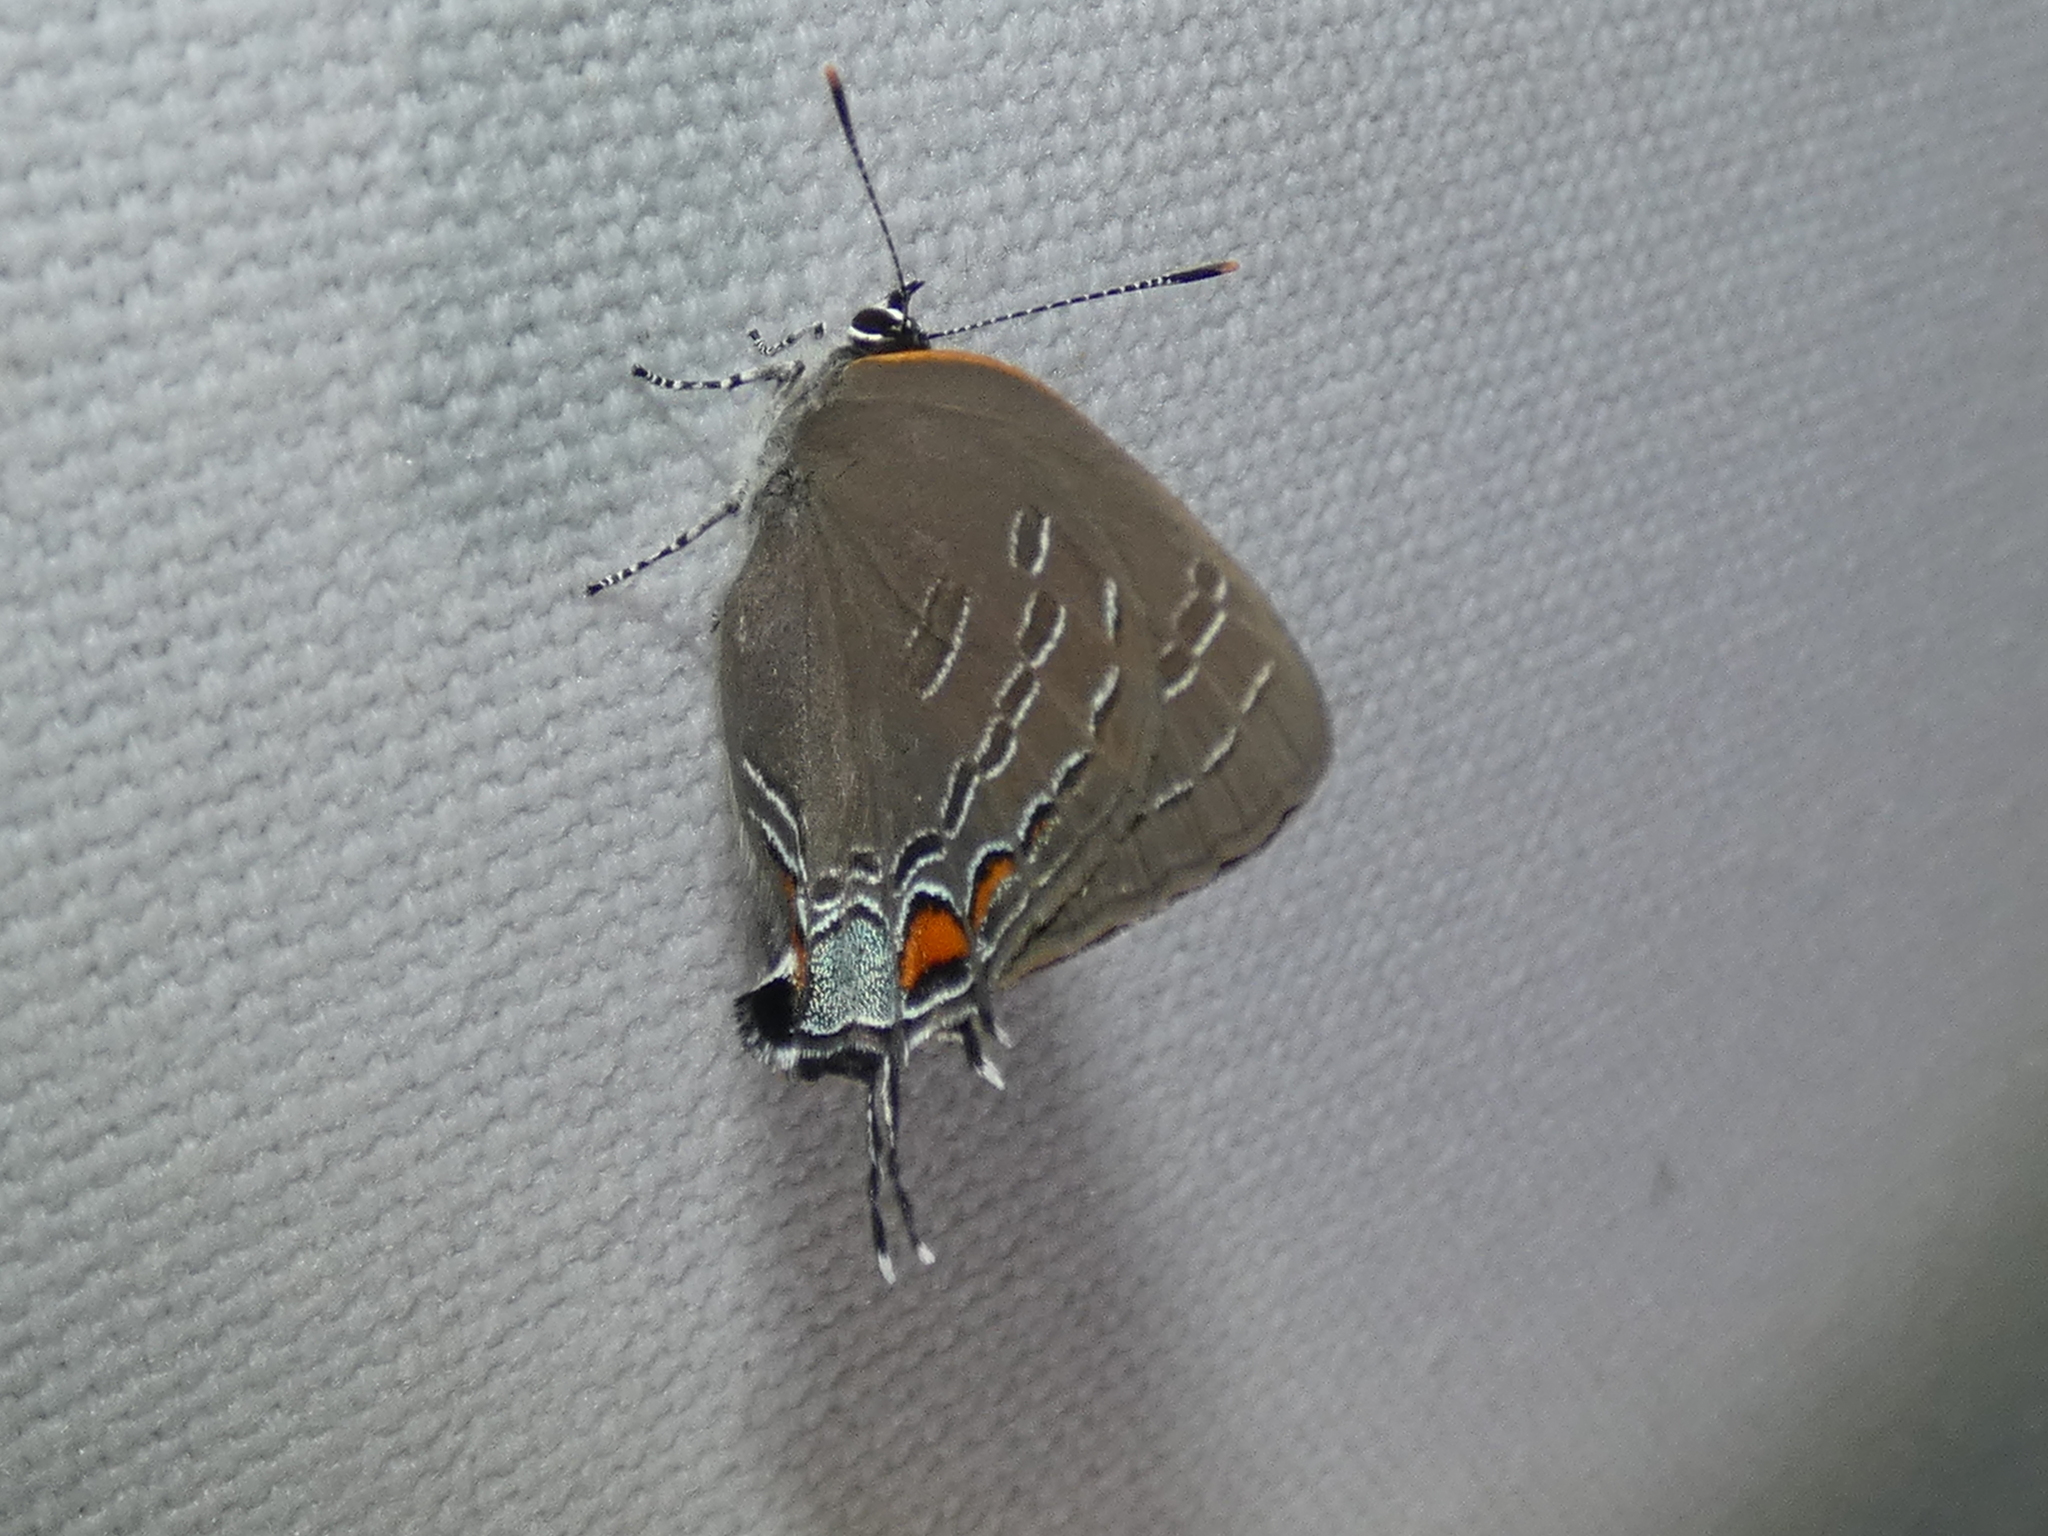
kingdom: Animalia
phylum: Arthropoda
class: Insecta
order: Lepidoptera
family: Lycaenidae
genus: Satyrium
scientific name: Satyrium calanus
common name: Banded hairstreak
